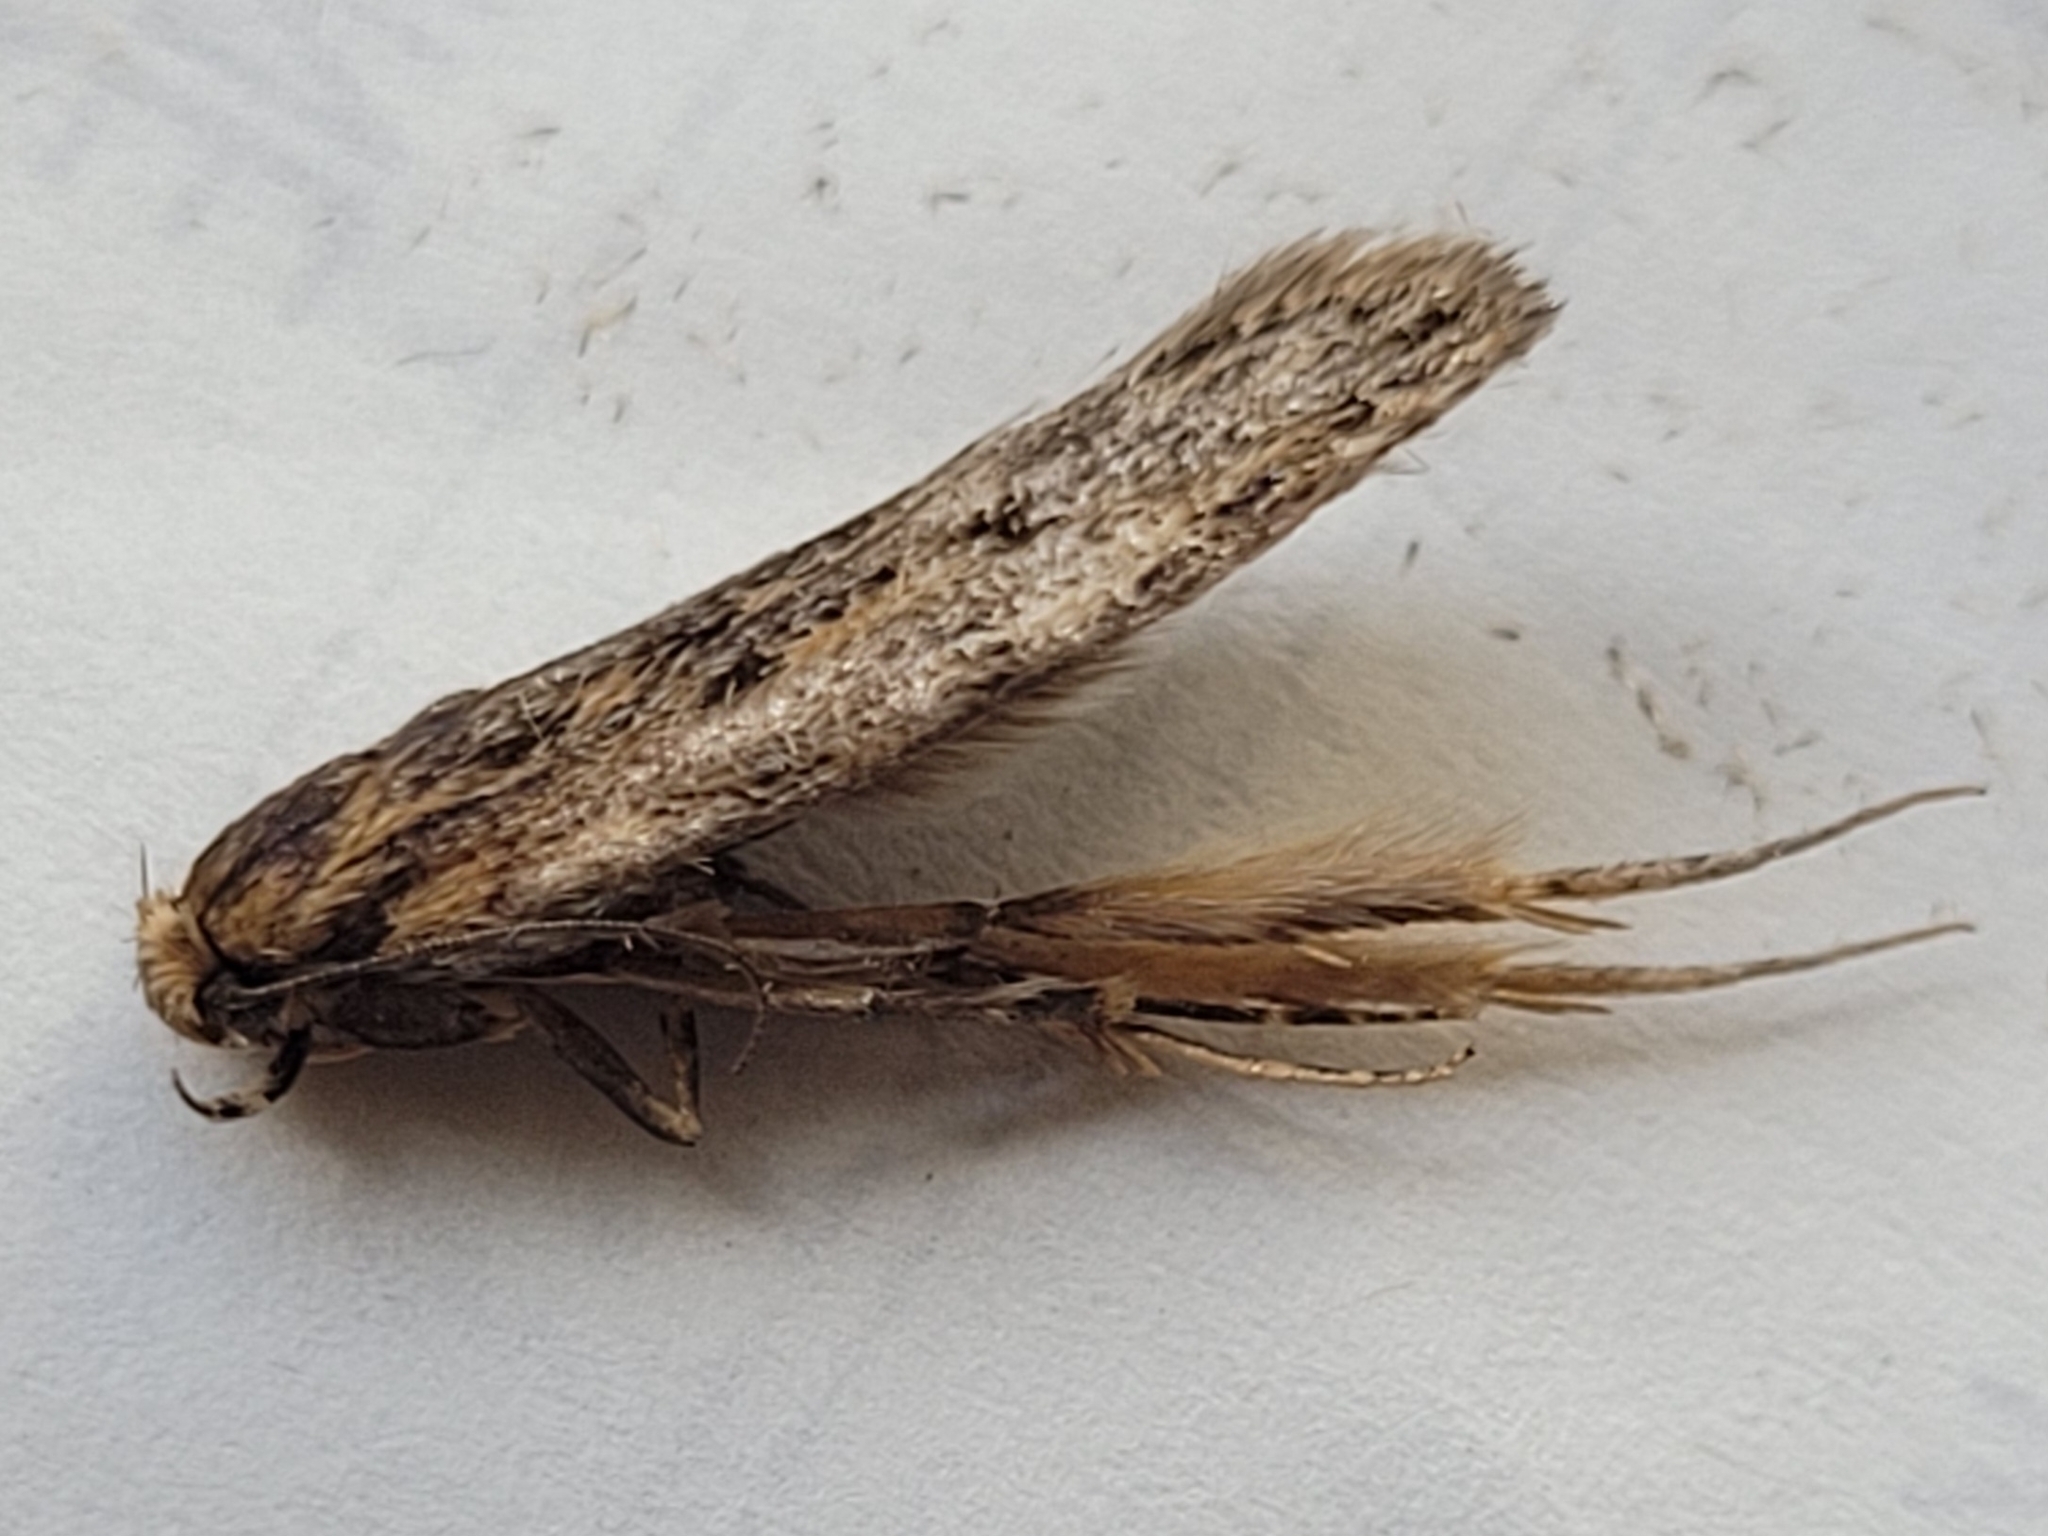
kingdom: Animalia
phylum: Arthropoda
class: Insecta
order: Lepidoptera
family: Oecophoridae
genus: Hofmannophila
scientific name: Hofmannophila pseudospretella
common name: Brown house moth
